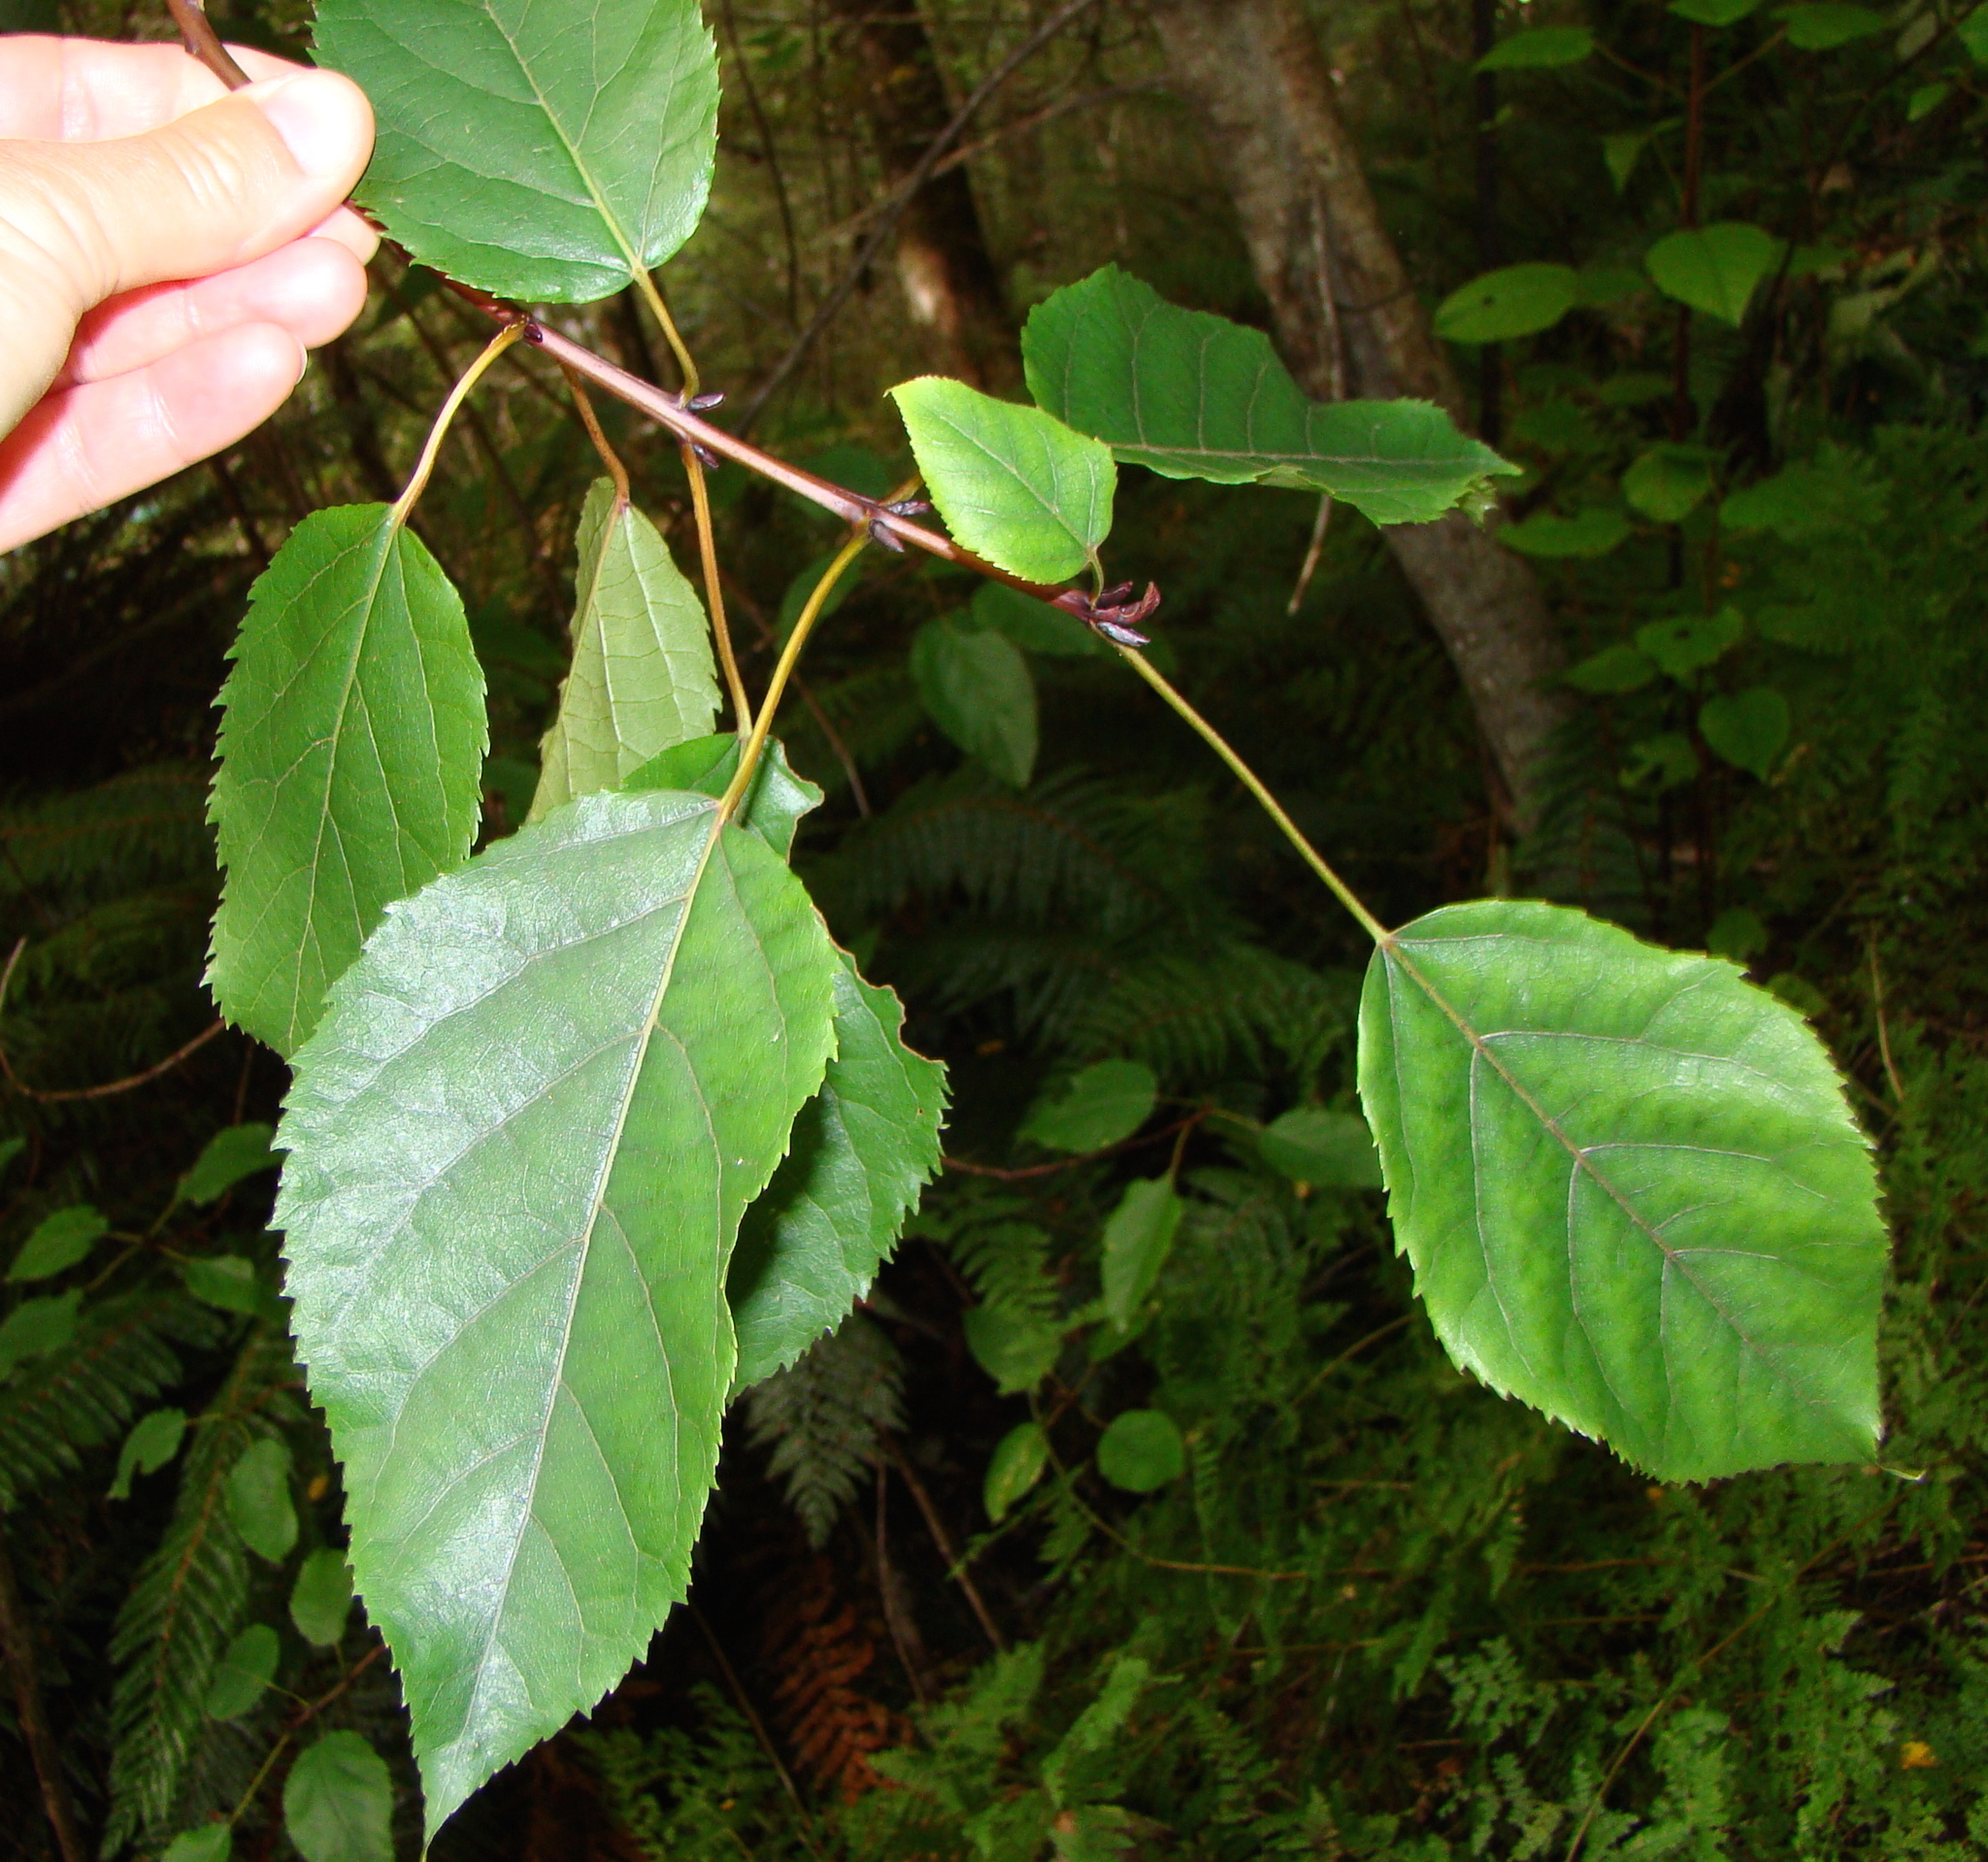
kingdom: Plantae
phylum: Tracheophyta
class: Magnoliopsida
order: Oxalidales
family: Elaeocarpaceae
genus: Aristotelia
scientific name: Aristotelia serrata
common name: New zealand wineberry
